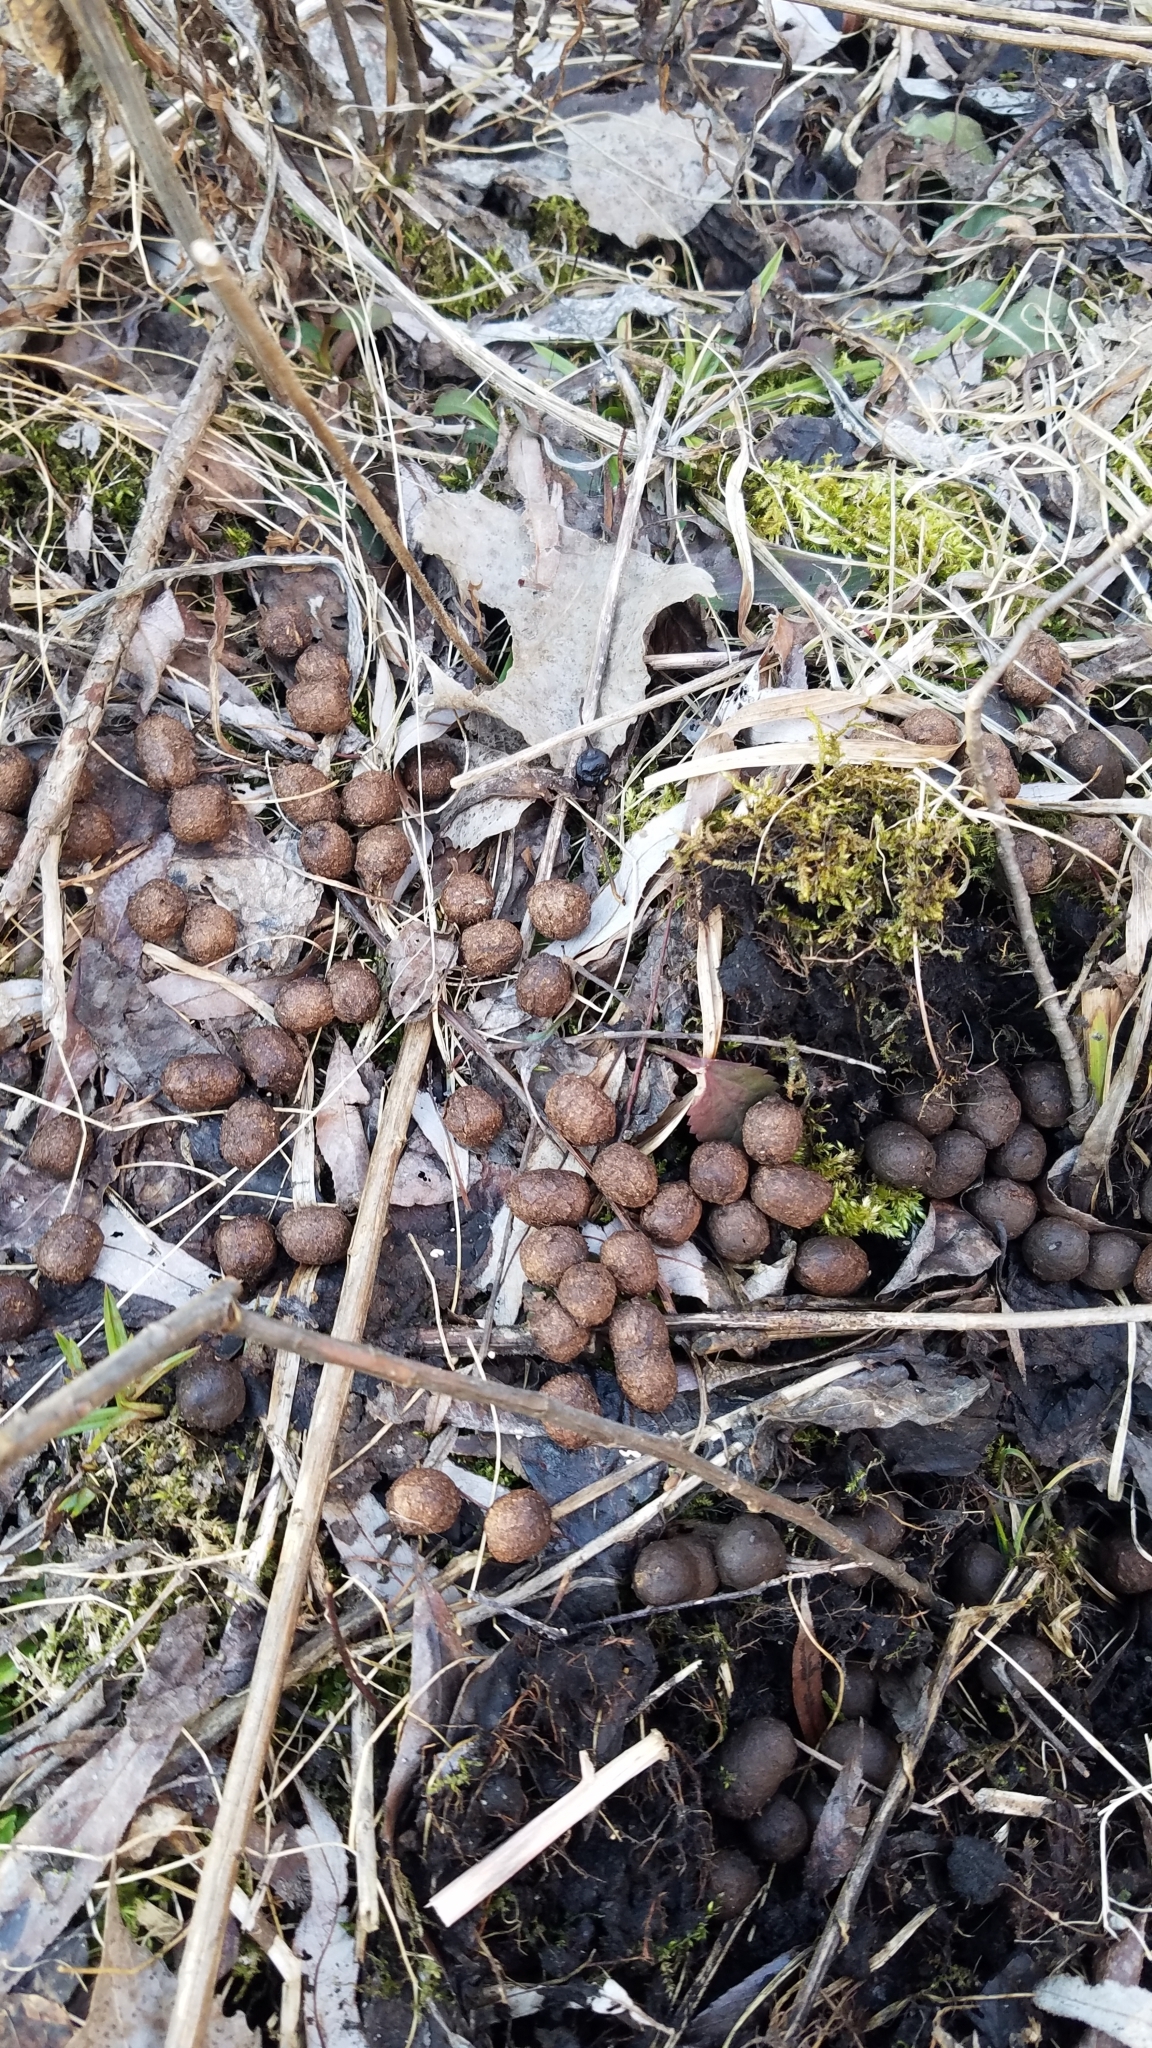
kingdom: Animalia
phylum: Chordata
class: Mammalia
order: Lagomorpha
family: Leporidae
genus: Sylvilagus
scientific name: Sylvilagus floridanus
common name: Eastern cottontail
